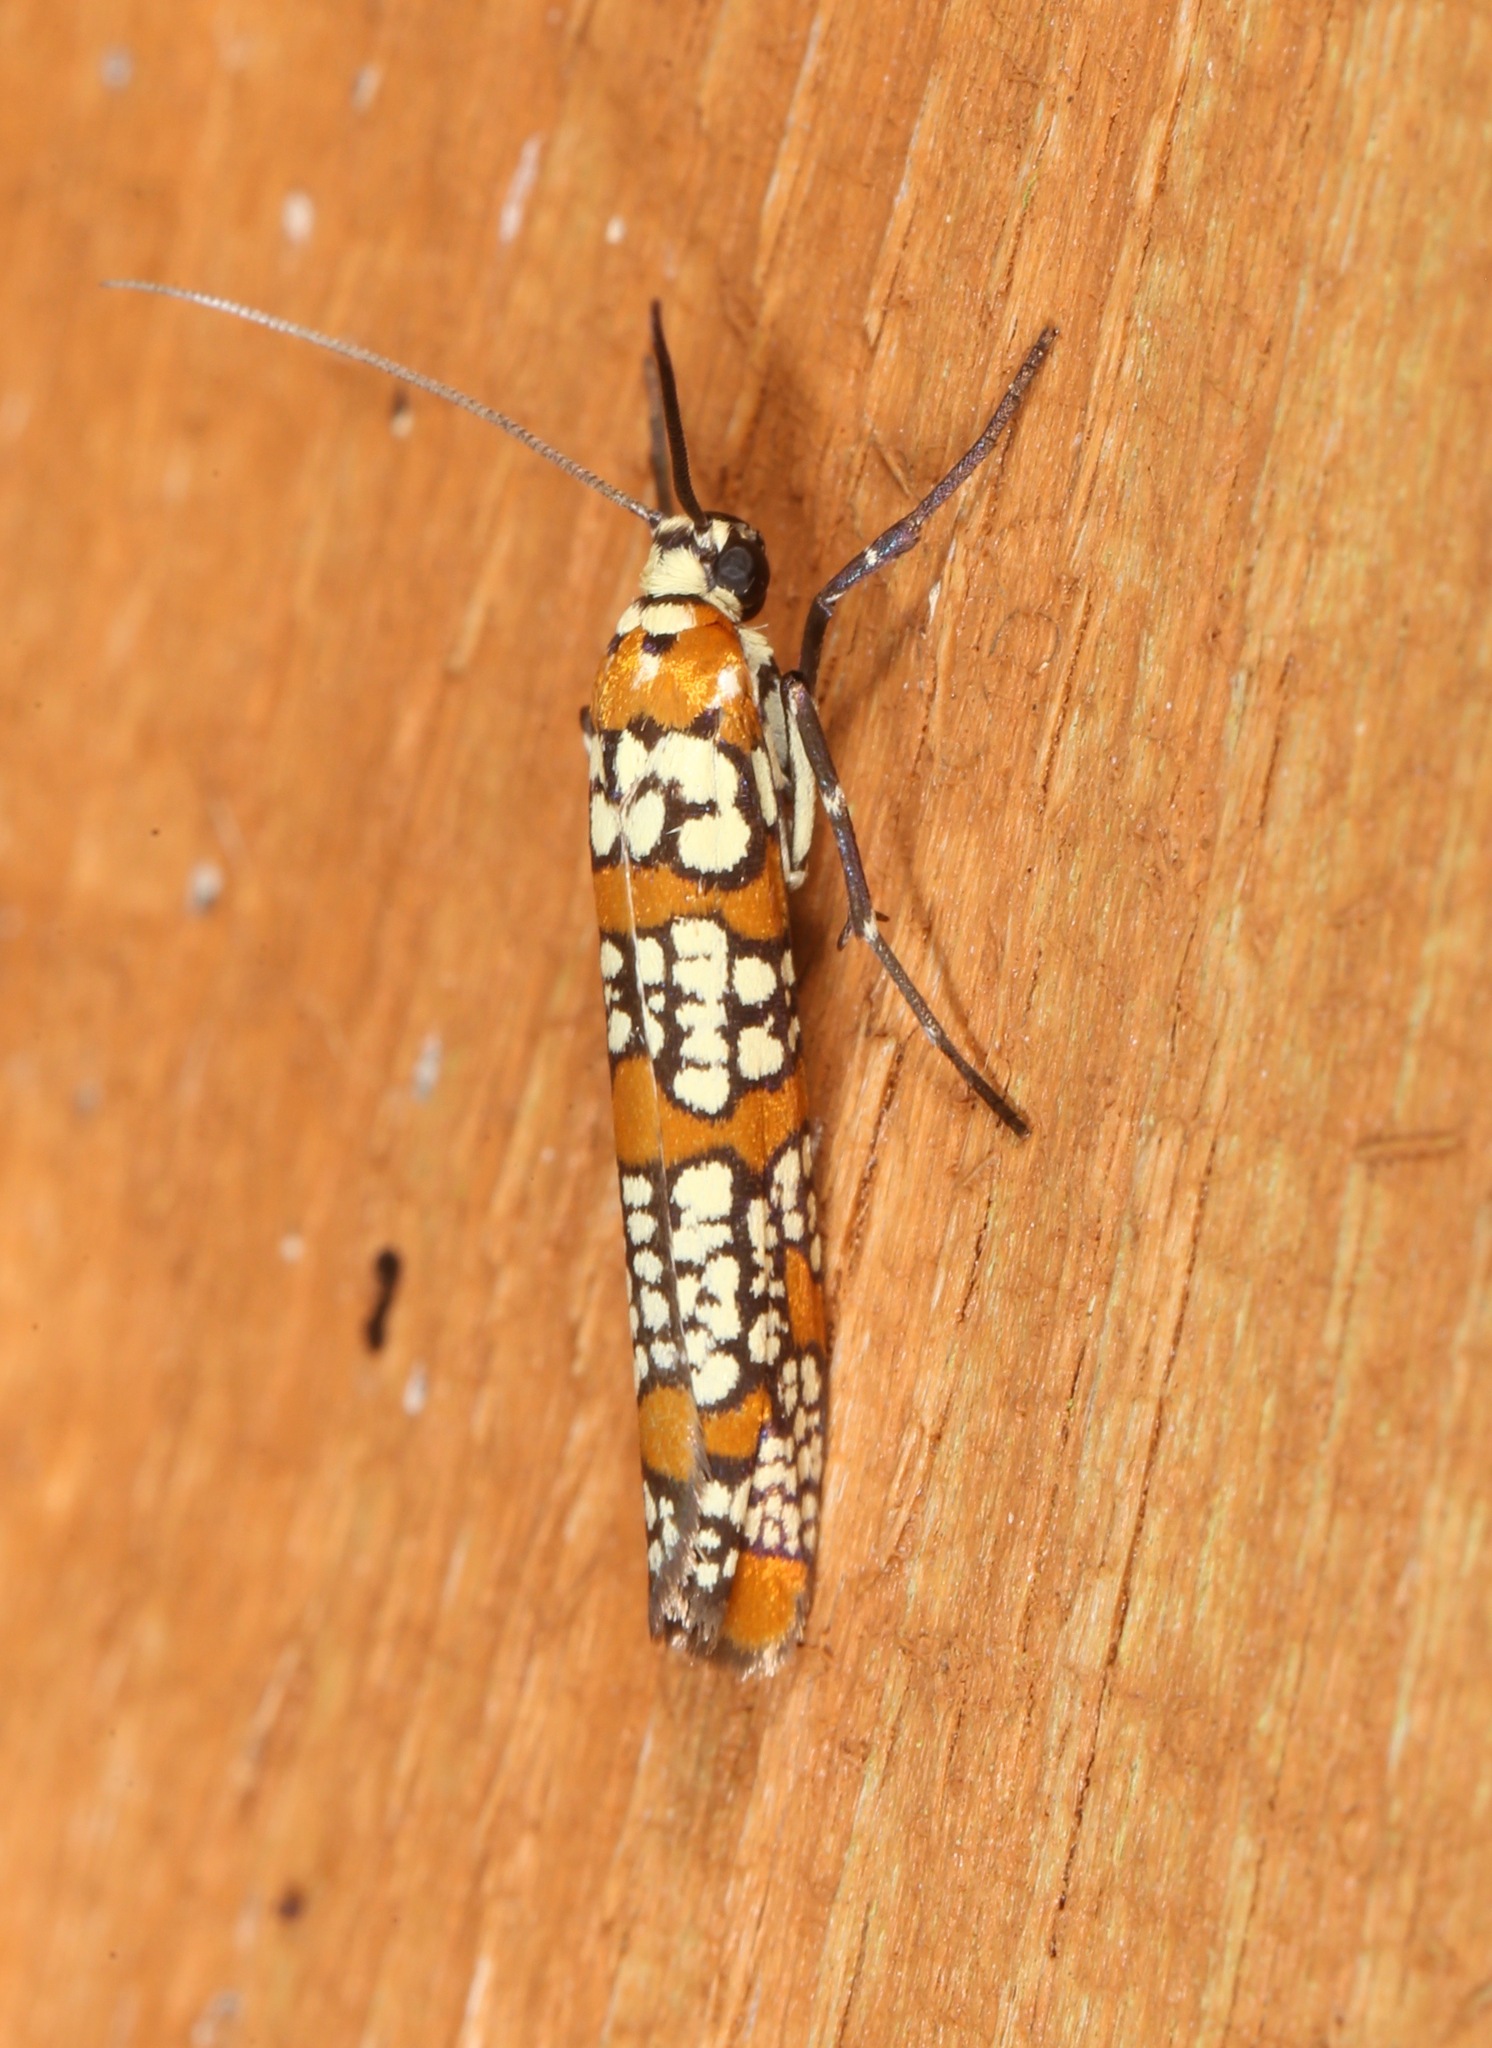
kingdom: Animalia
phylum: Arthropoda
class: Insecta
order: Lepidoptera
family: Attevidae
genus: Atteva
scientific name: Atteva punctella
